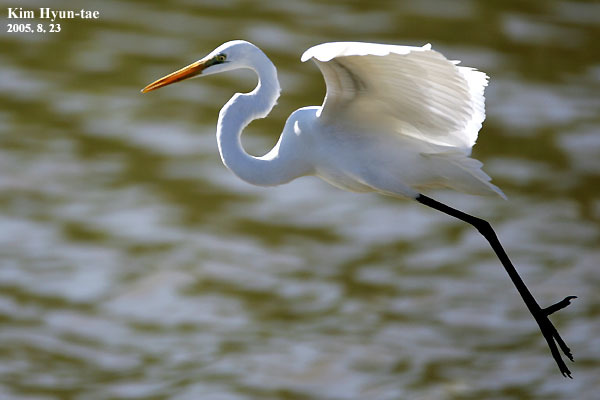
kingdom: Animalia
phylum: Chordata
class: Aves
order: Pelecaniformes
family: Ardeidae
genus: Ardea
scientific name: Ardea alba
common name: Great egret
